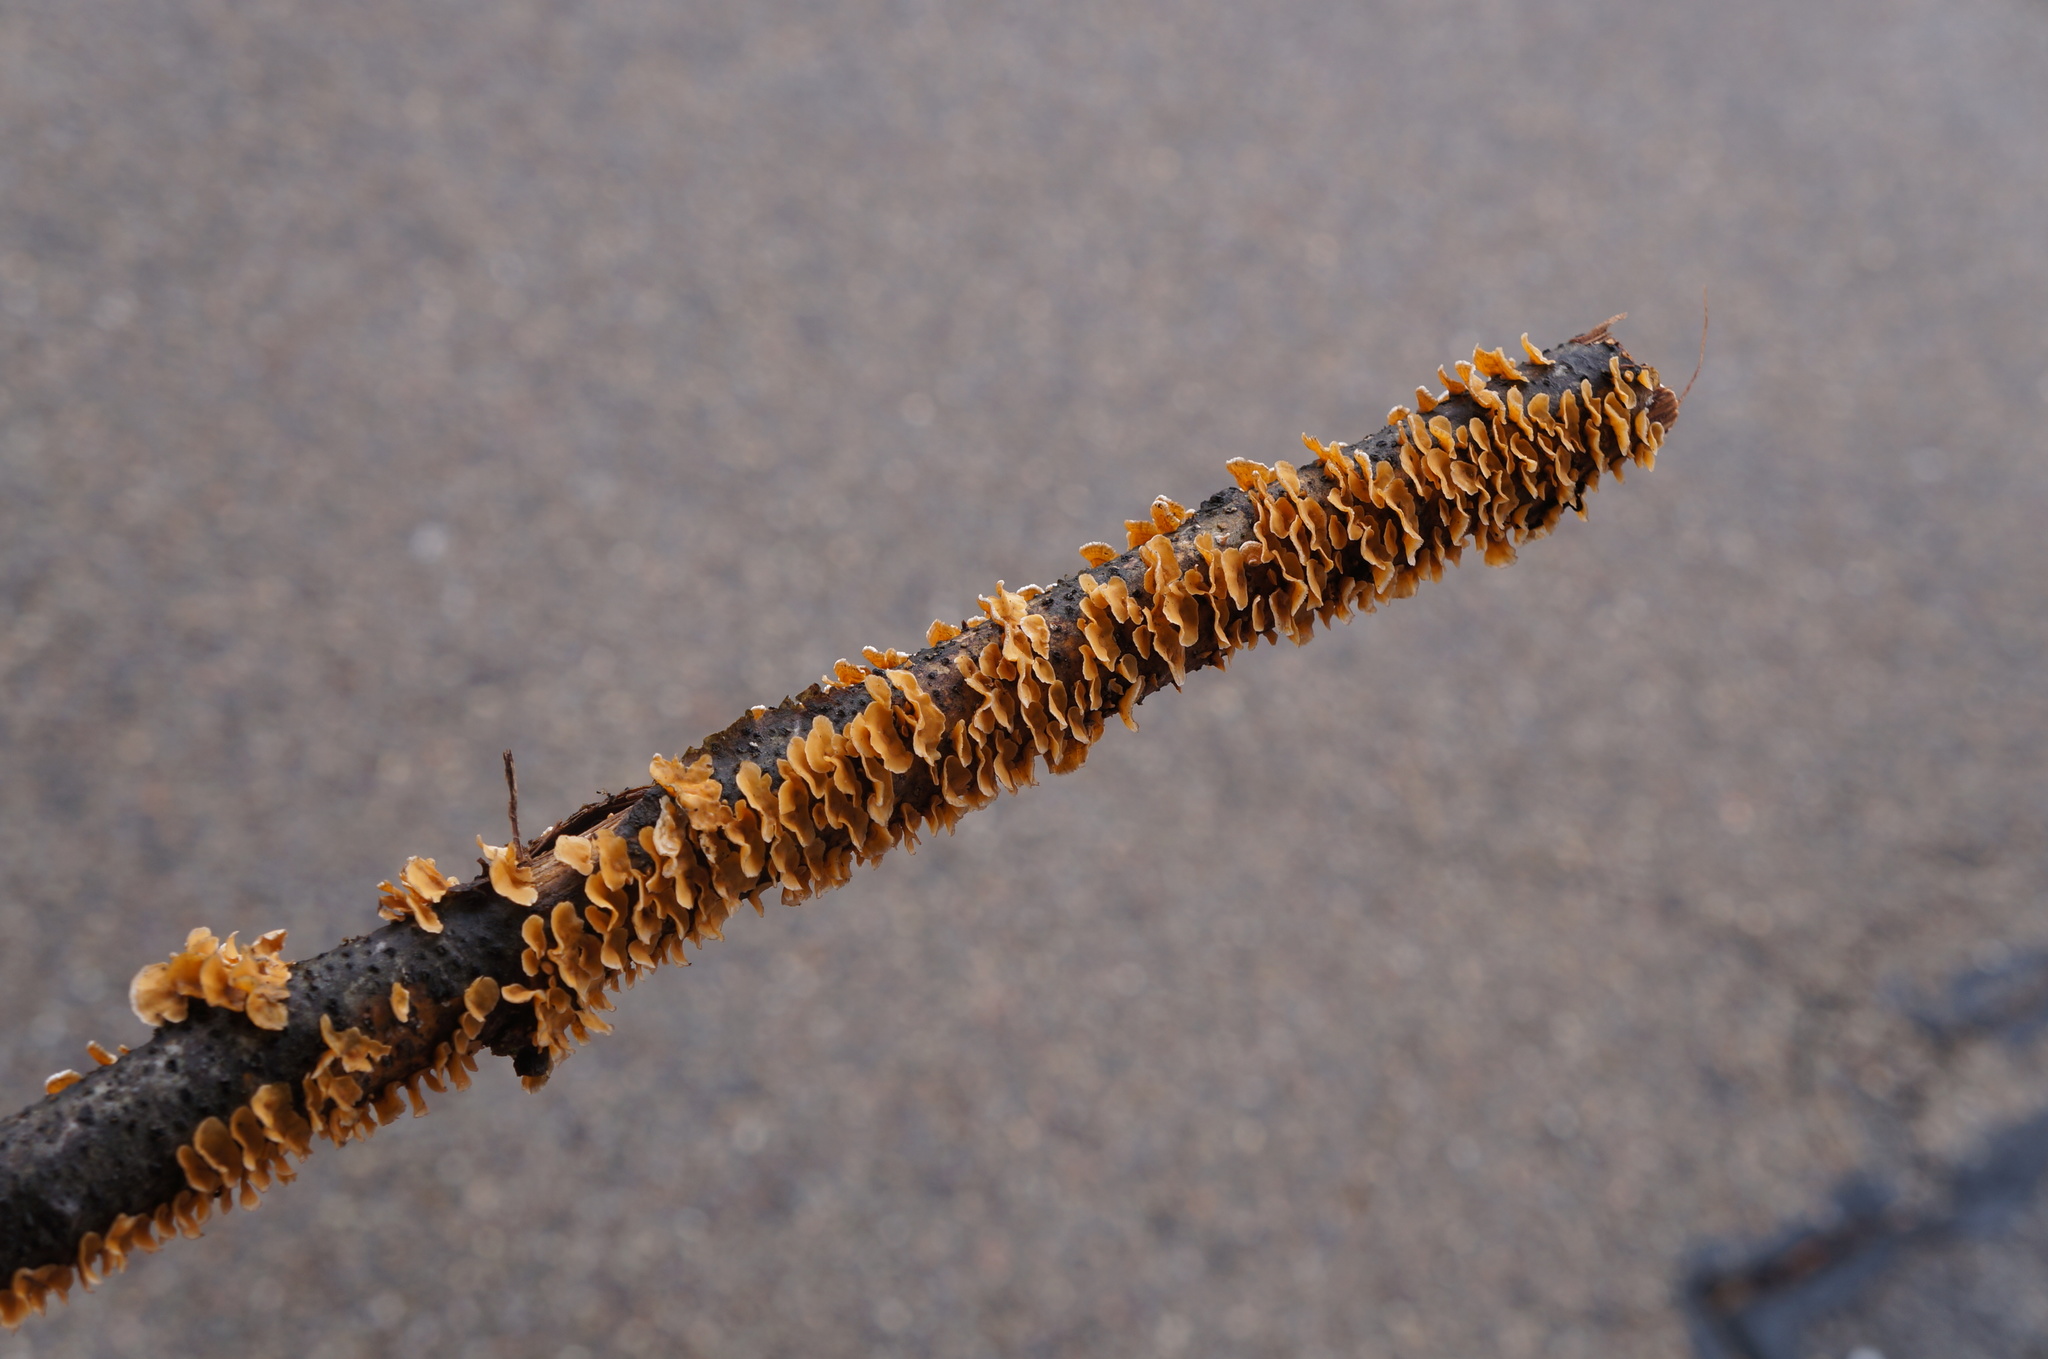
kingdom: Fungi
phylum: Basidiomycota
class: Agaricomycetes
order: Russulales
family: Stereaceae
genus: Stereum
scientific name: Stereum complicatum
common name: Crowded parchment
